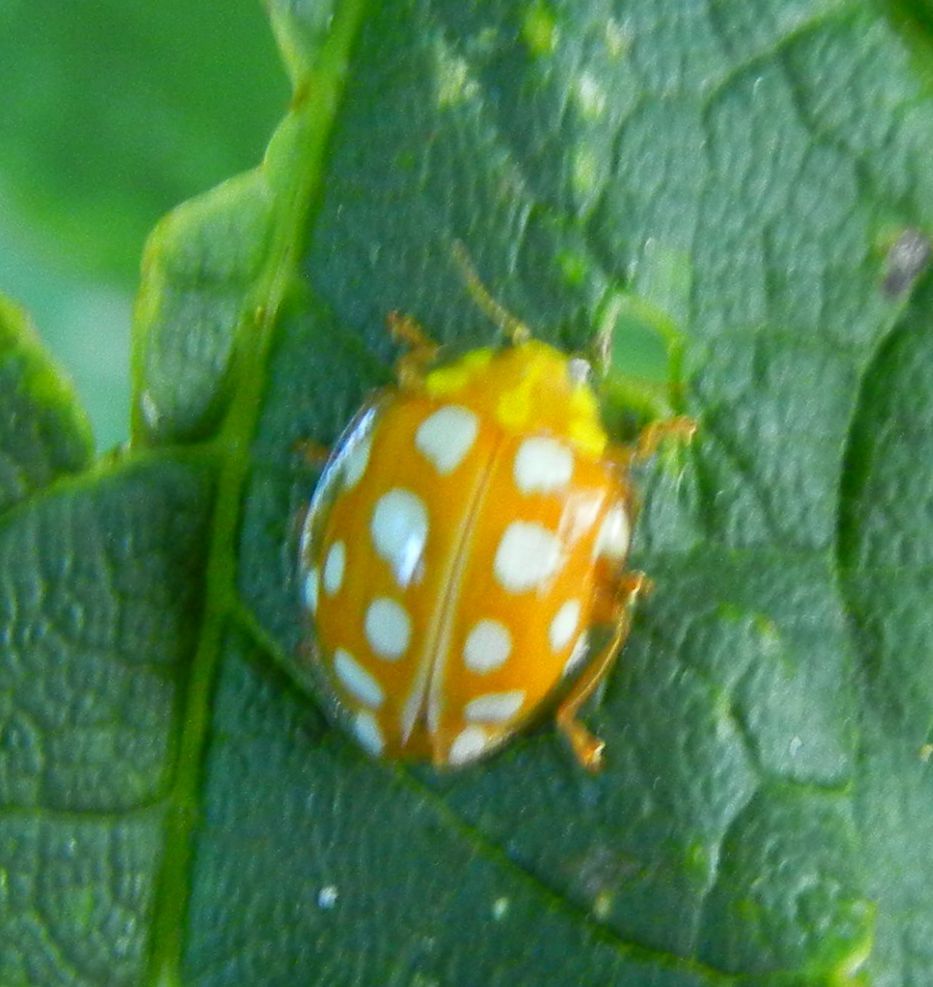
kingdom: Animalia
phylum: Arthropoda
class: Insecta
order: Coleoptera
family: Coccinellidae
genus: Halyzia
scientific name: Halyzia sedecimguttata
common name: Orange ladybird
